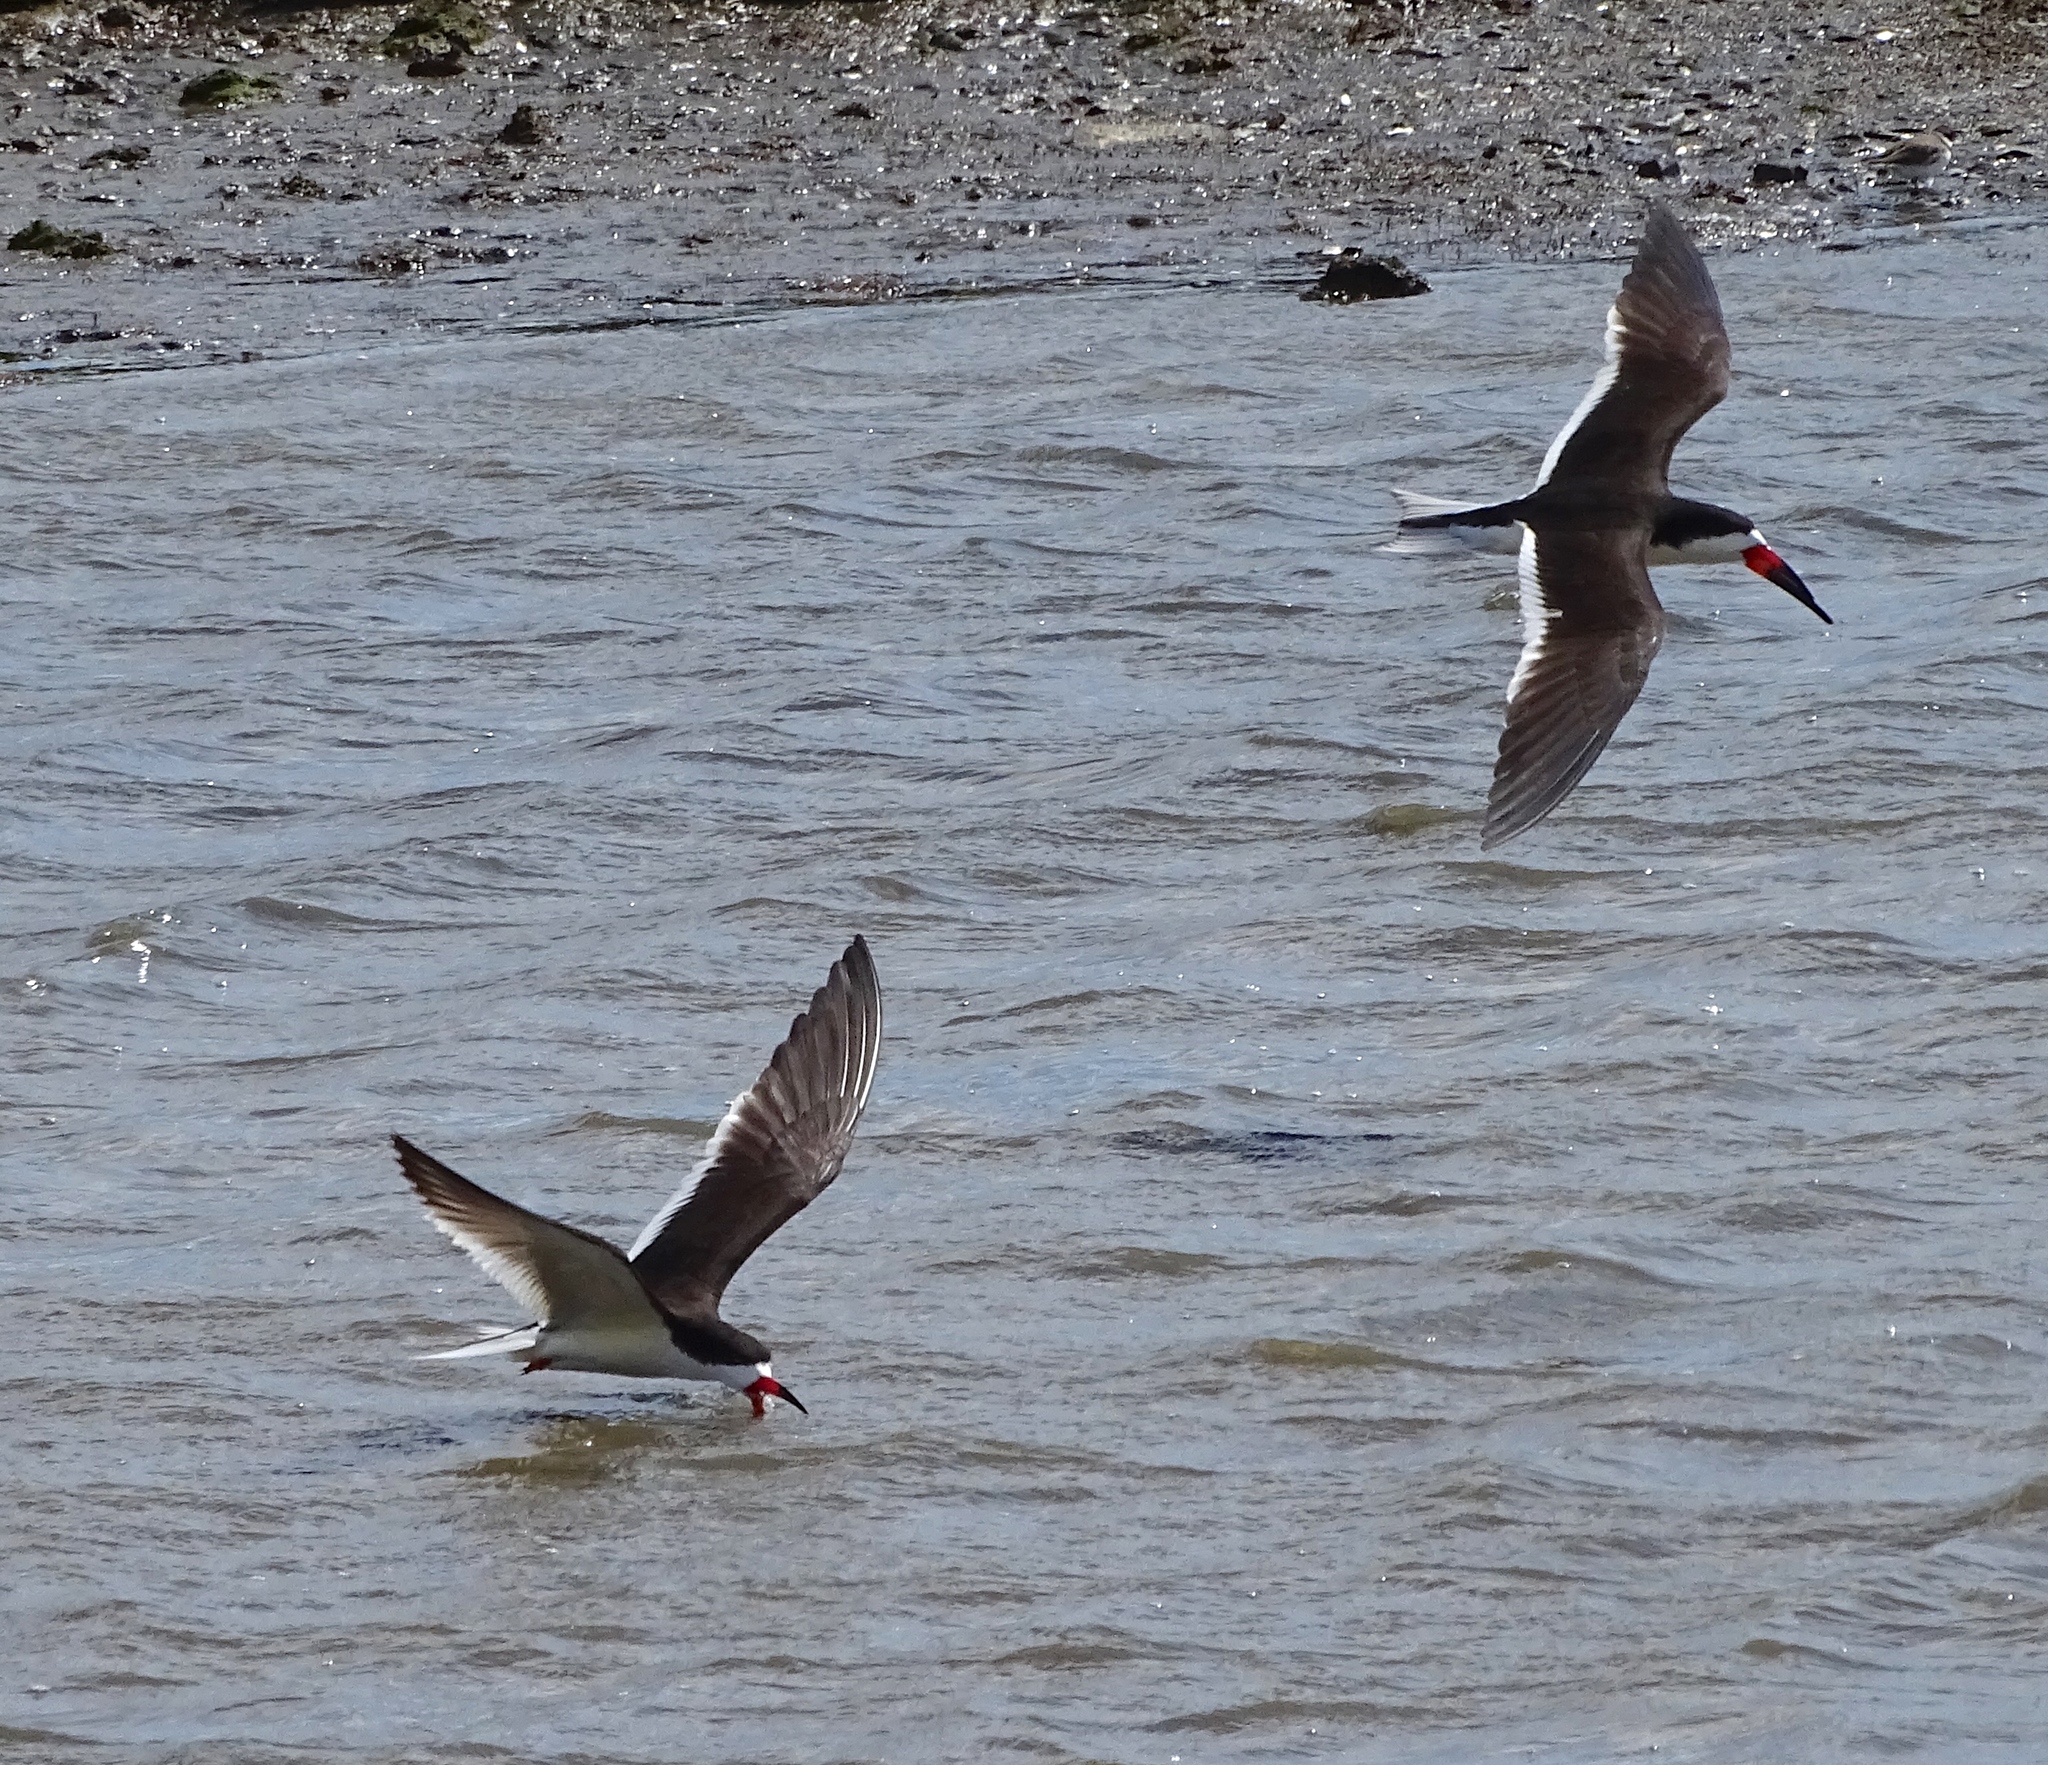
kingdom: Animalia
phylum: Chordata
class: Aves
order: Charadriiformes
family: Laridae
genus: Rynchops
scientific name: Rynchops niger
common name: Black skimmer
